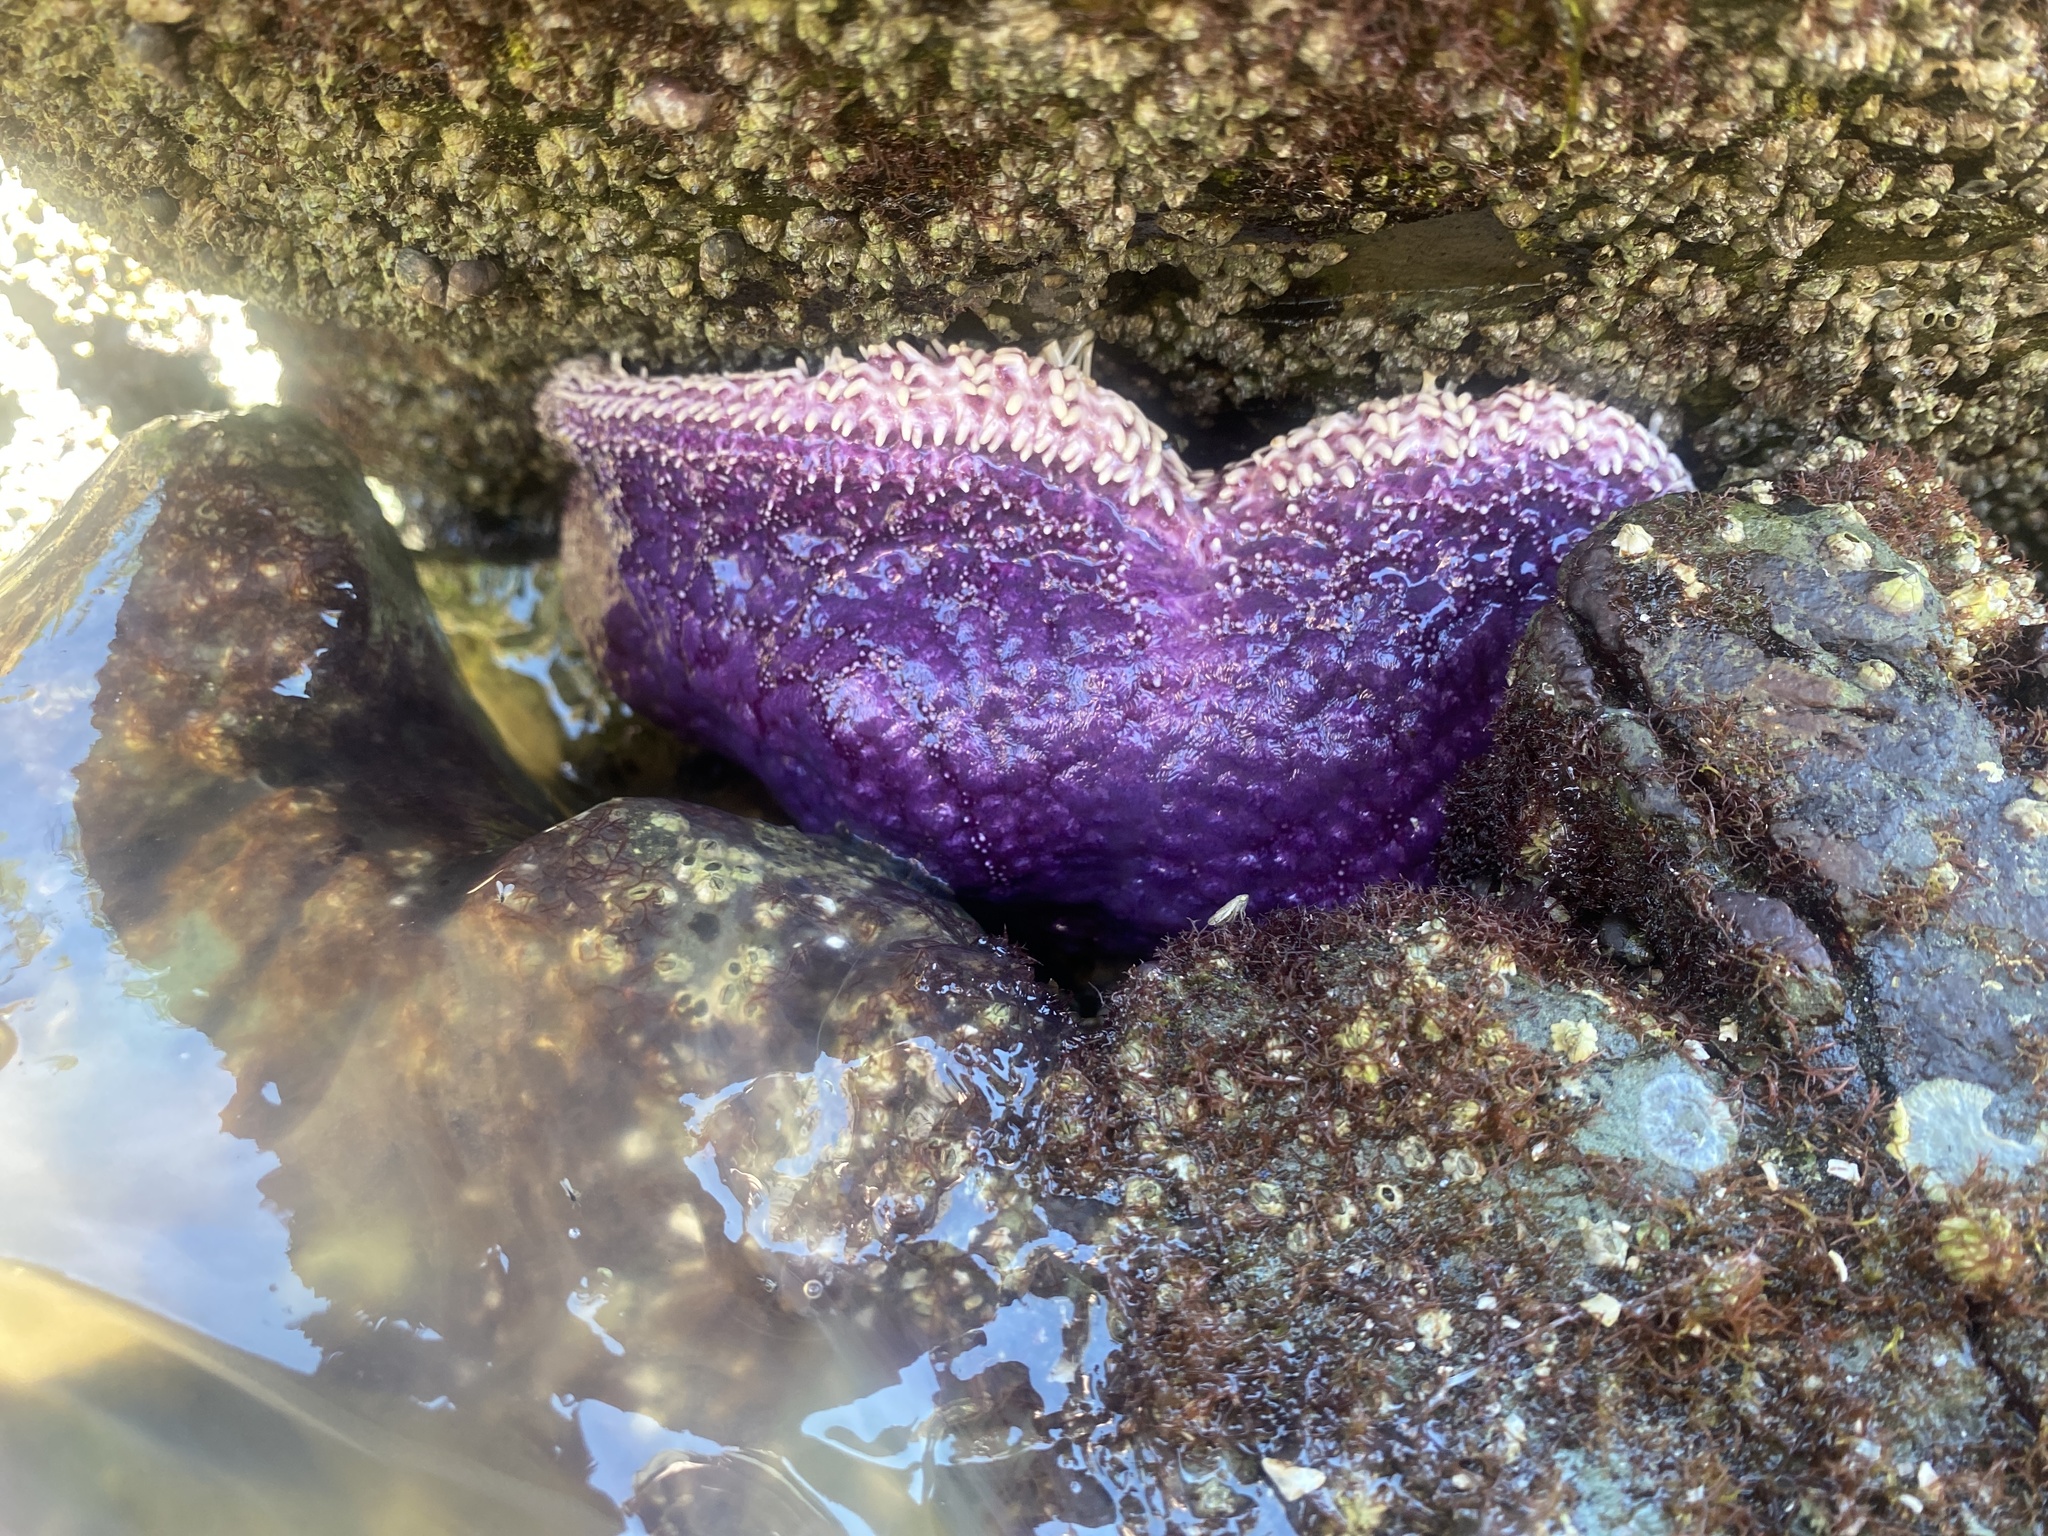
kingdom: Animalia
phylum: Echinodermata
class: Asteroidea
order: Forcipulatida
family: Asteriidae
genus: Pisaster
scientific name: Pisaster ochraceus
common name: Ochre stars
